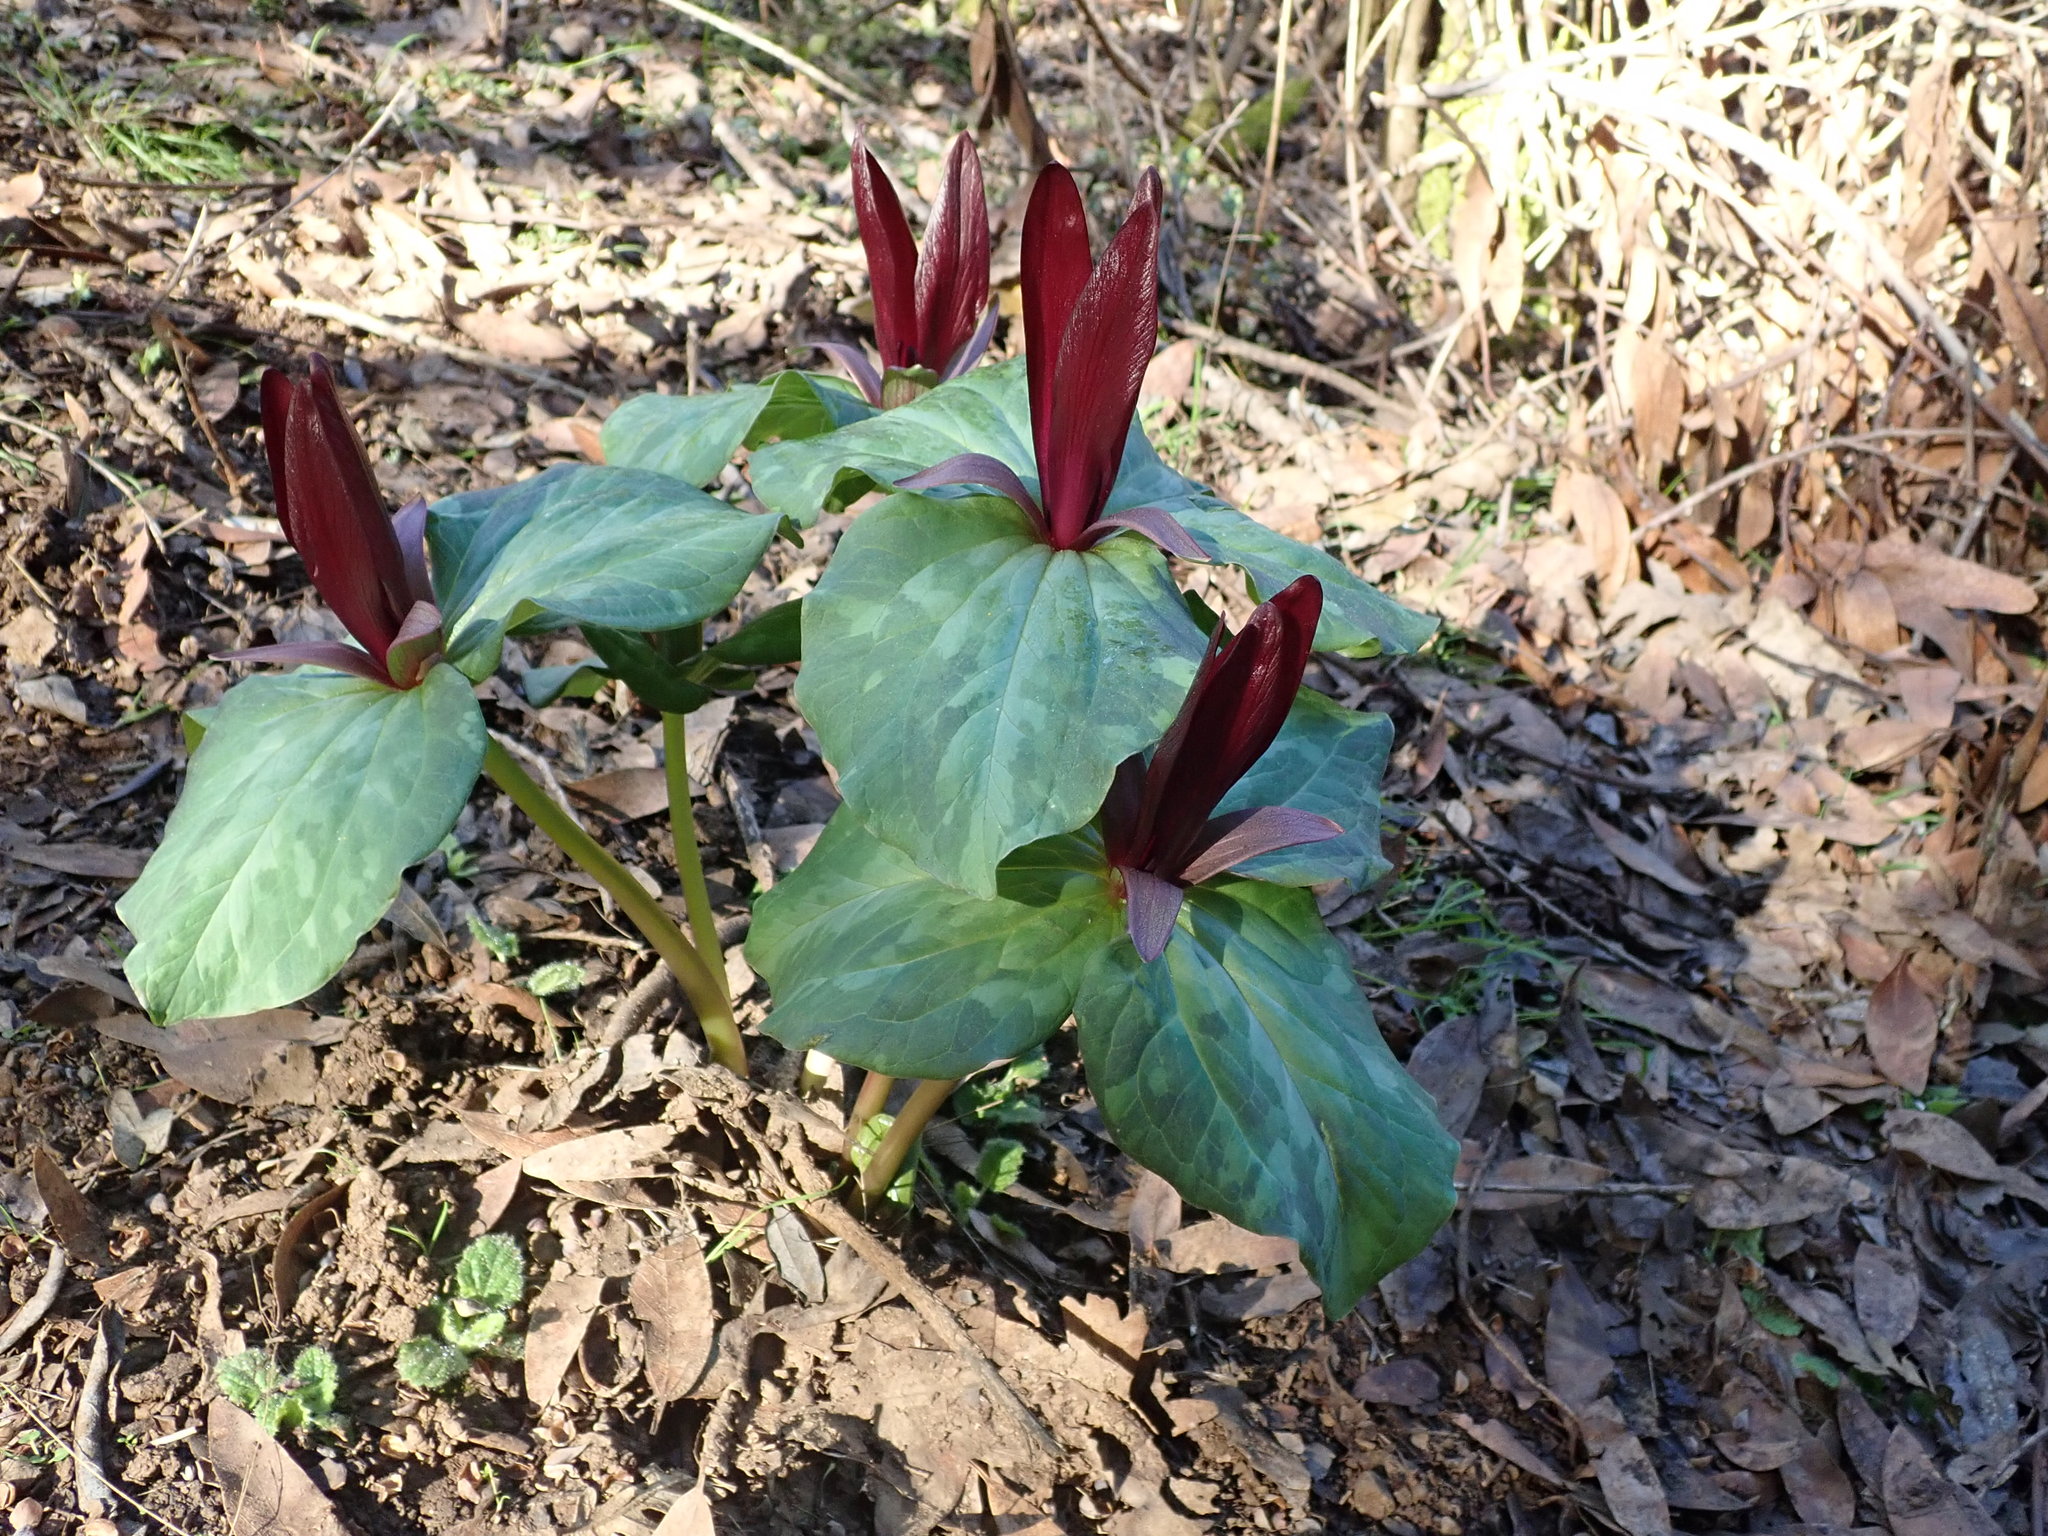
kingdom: Plantae
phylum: Tracheophyta
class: Liliopsida
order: Liliales
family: Melanthiaceae
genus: Trillium
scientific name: Trillium chloropetalum
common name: Giant trillium
